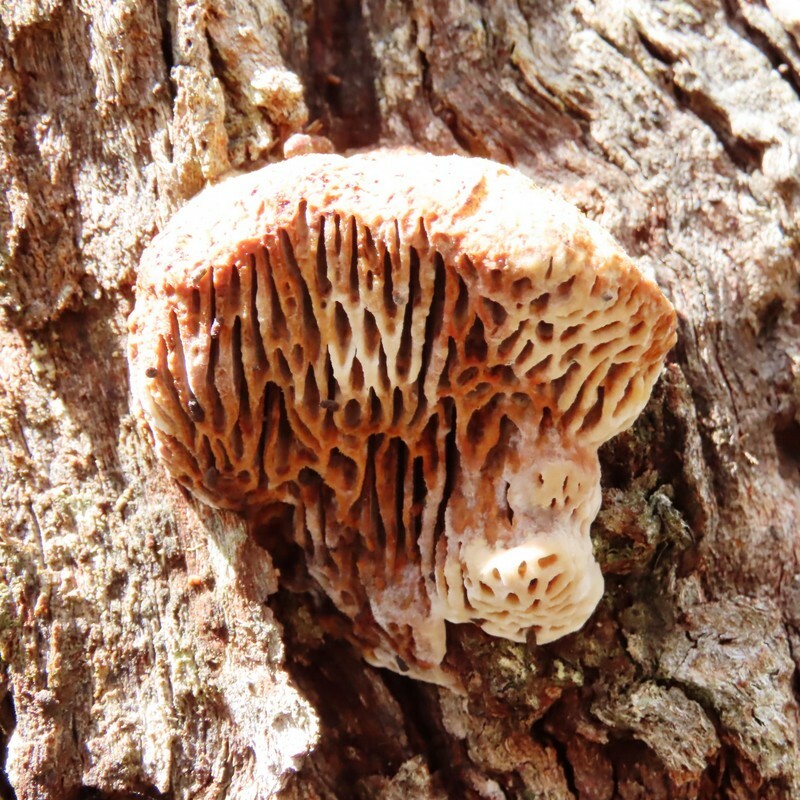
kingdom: Fungi
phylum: Basidiomycota
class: Agaricomycetes
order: Polyporales
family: Polyporaceae
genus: Hexagonia
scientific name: Hexagonia vesparia
